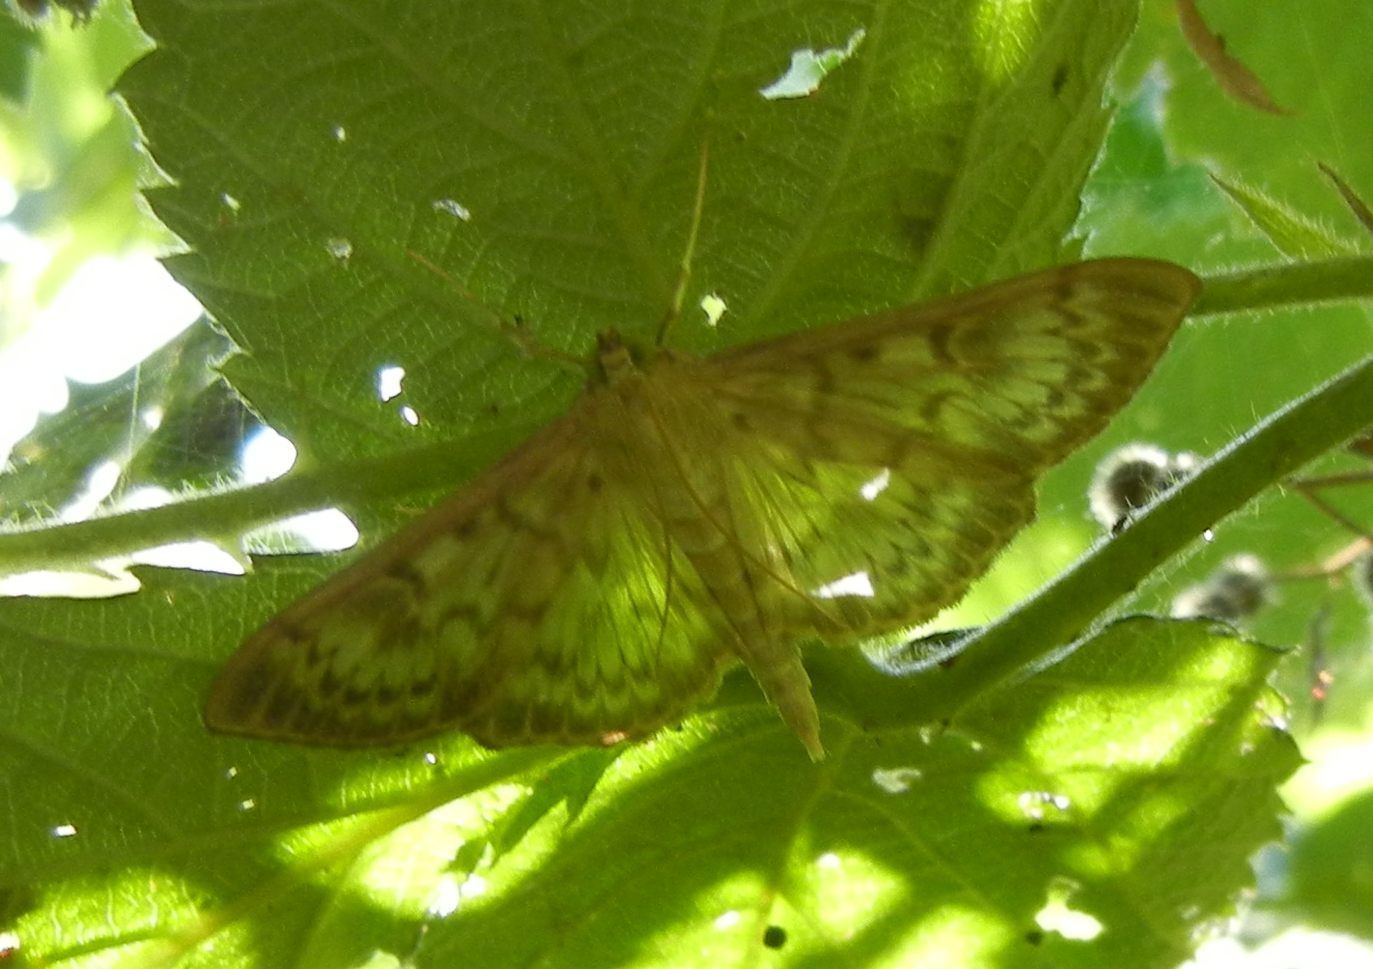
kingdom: Animalia
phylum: Arthropoda
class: Insecta
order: Lepidoptera
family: Crambidae
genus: Patania
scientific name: Patania ruralis
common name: Mother of pearl
